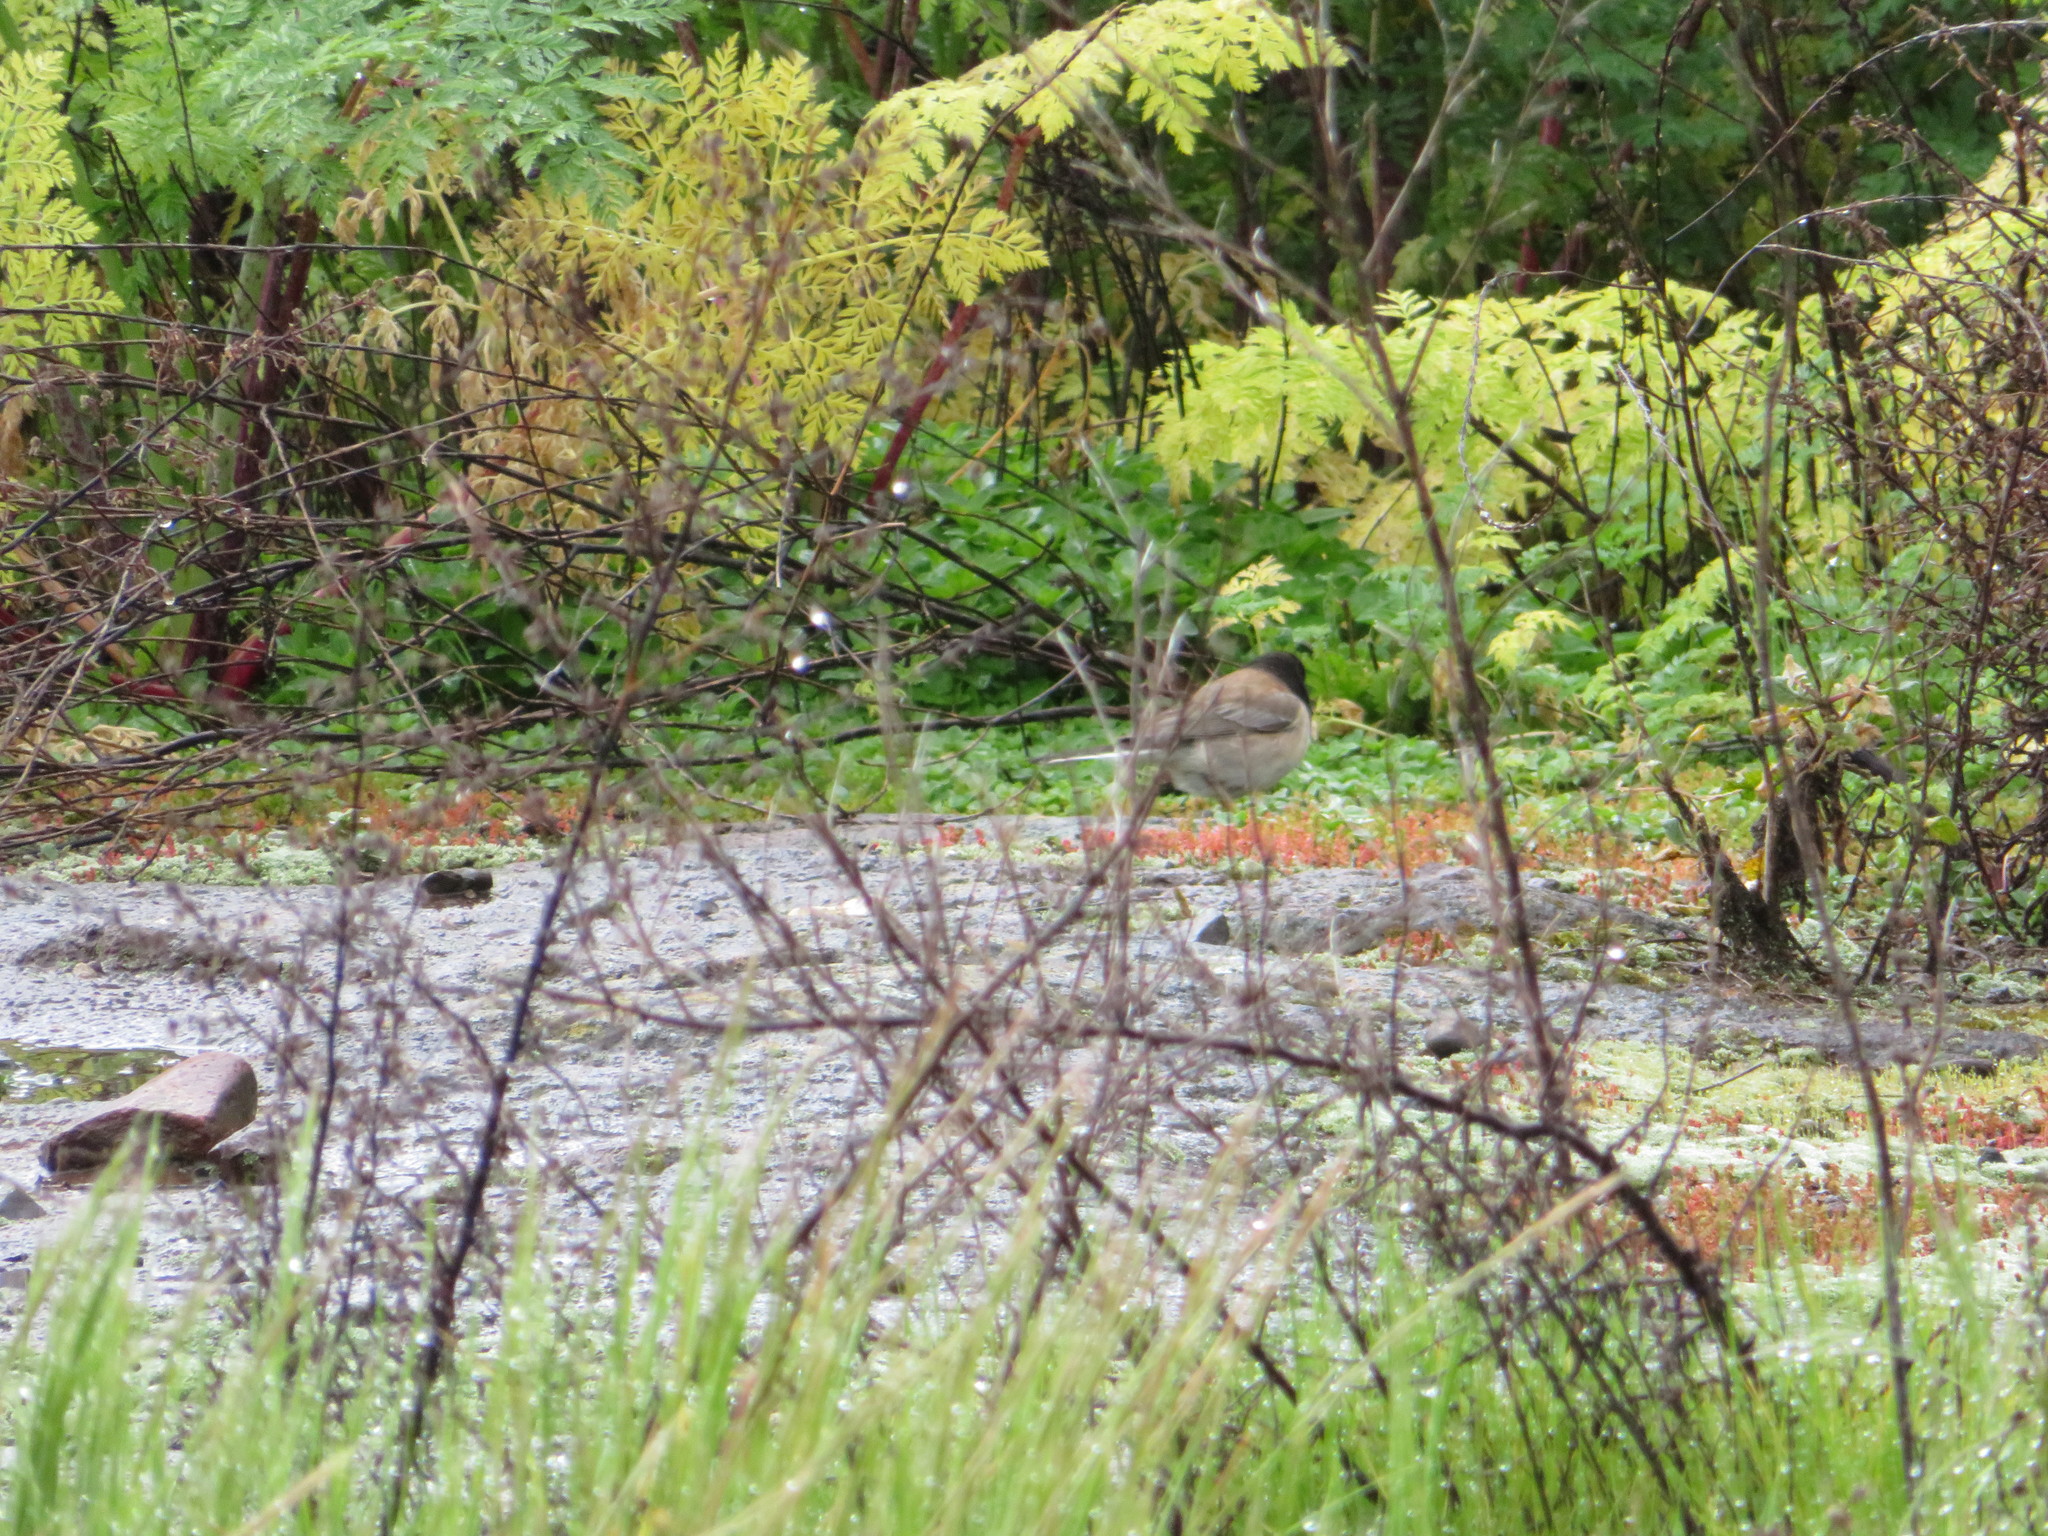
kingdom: Animalia
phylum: Chordata
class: Aves
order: Passeriformes
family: Passerellidae
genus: Junco
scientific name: Junco hyemalis
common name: Dark-eyed junco
